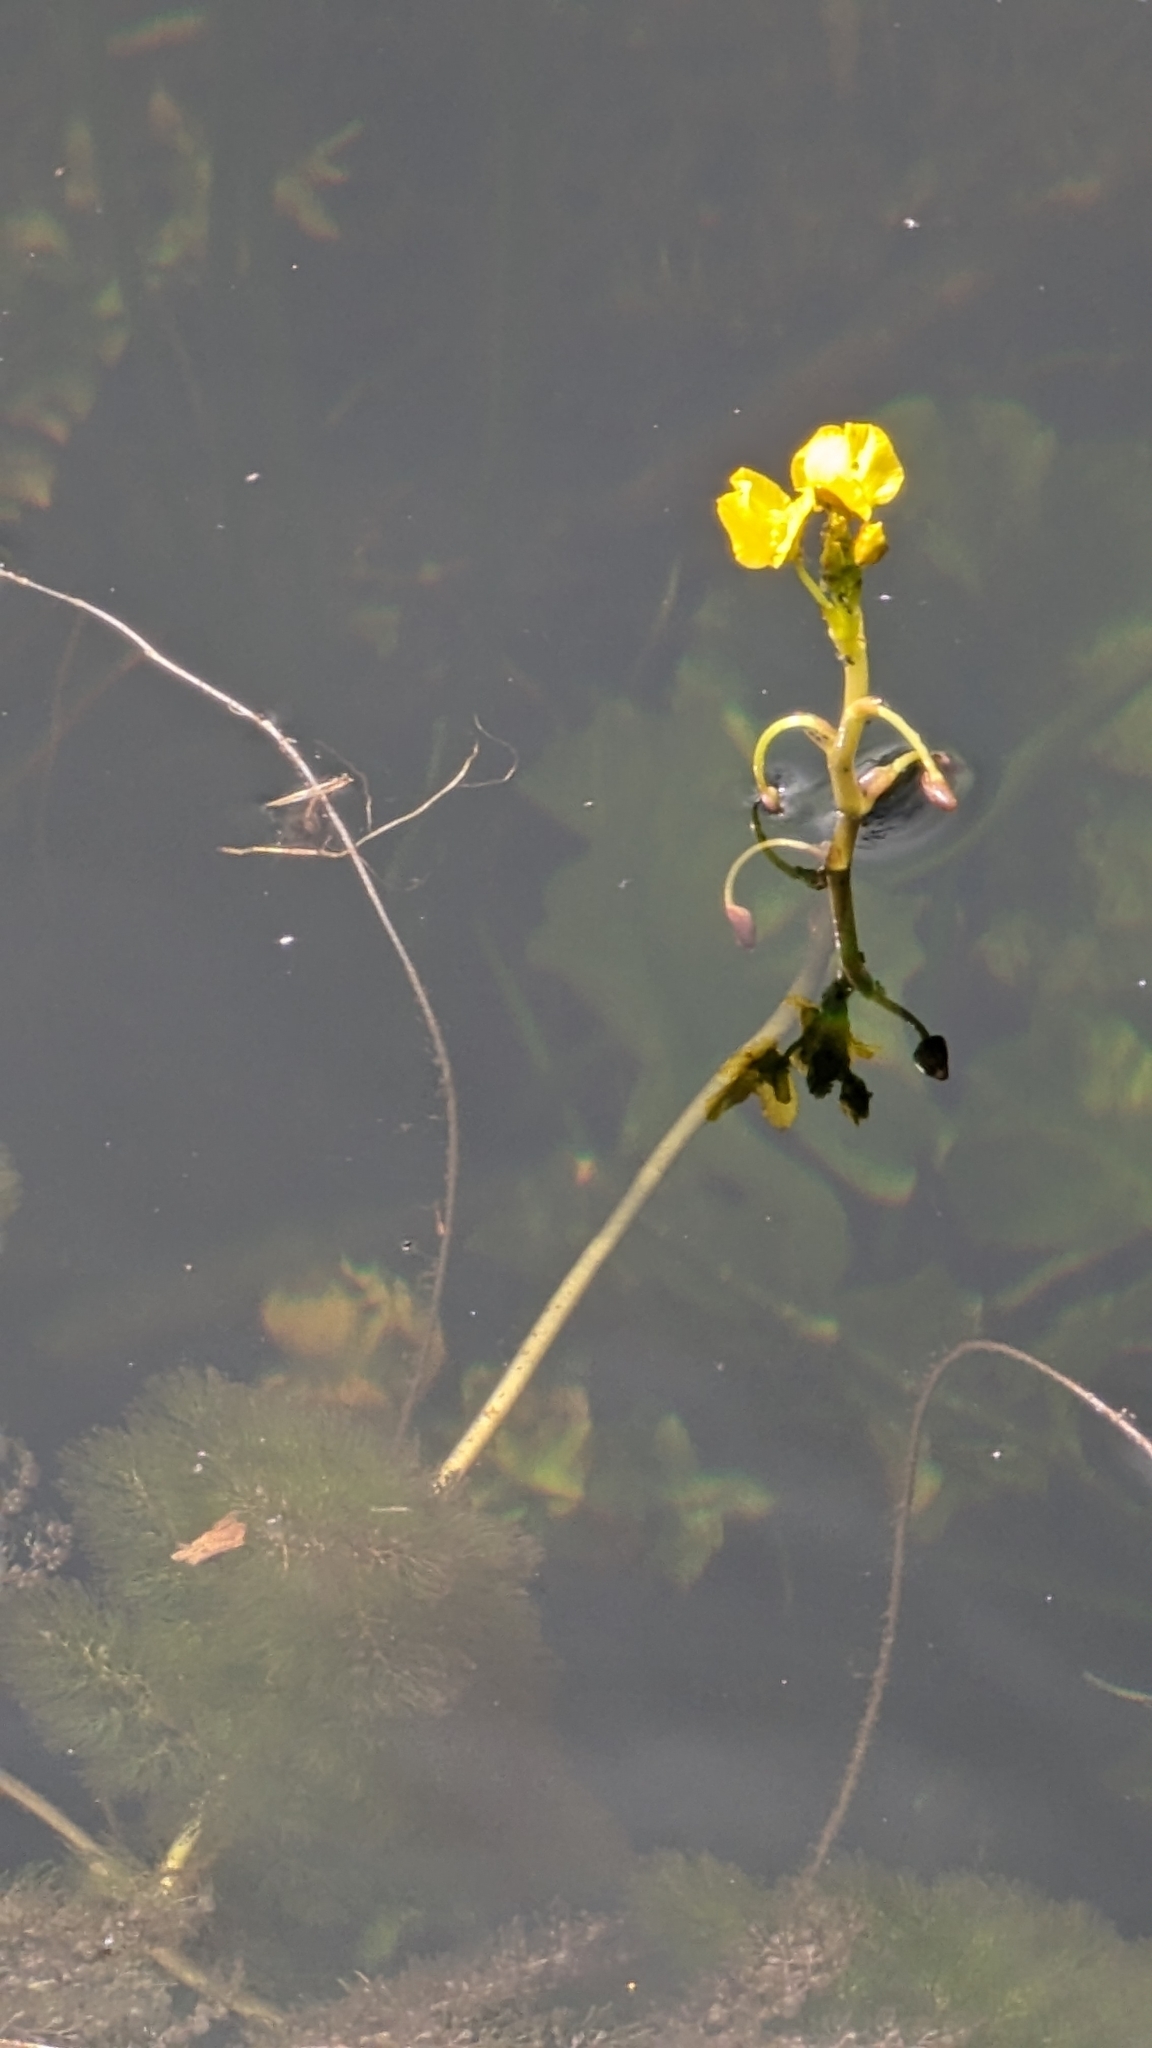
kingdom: Plantae
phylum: Tracheophyta
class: Magnoliopsida
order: Lamiales
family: Lentibulariaceae
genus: Utricularia
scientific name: Utricularia foliosa
